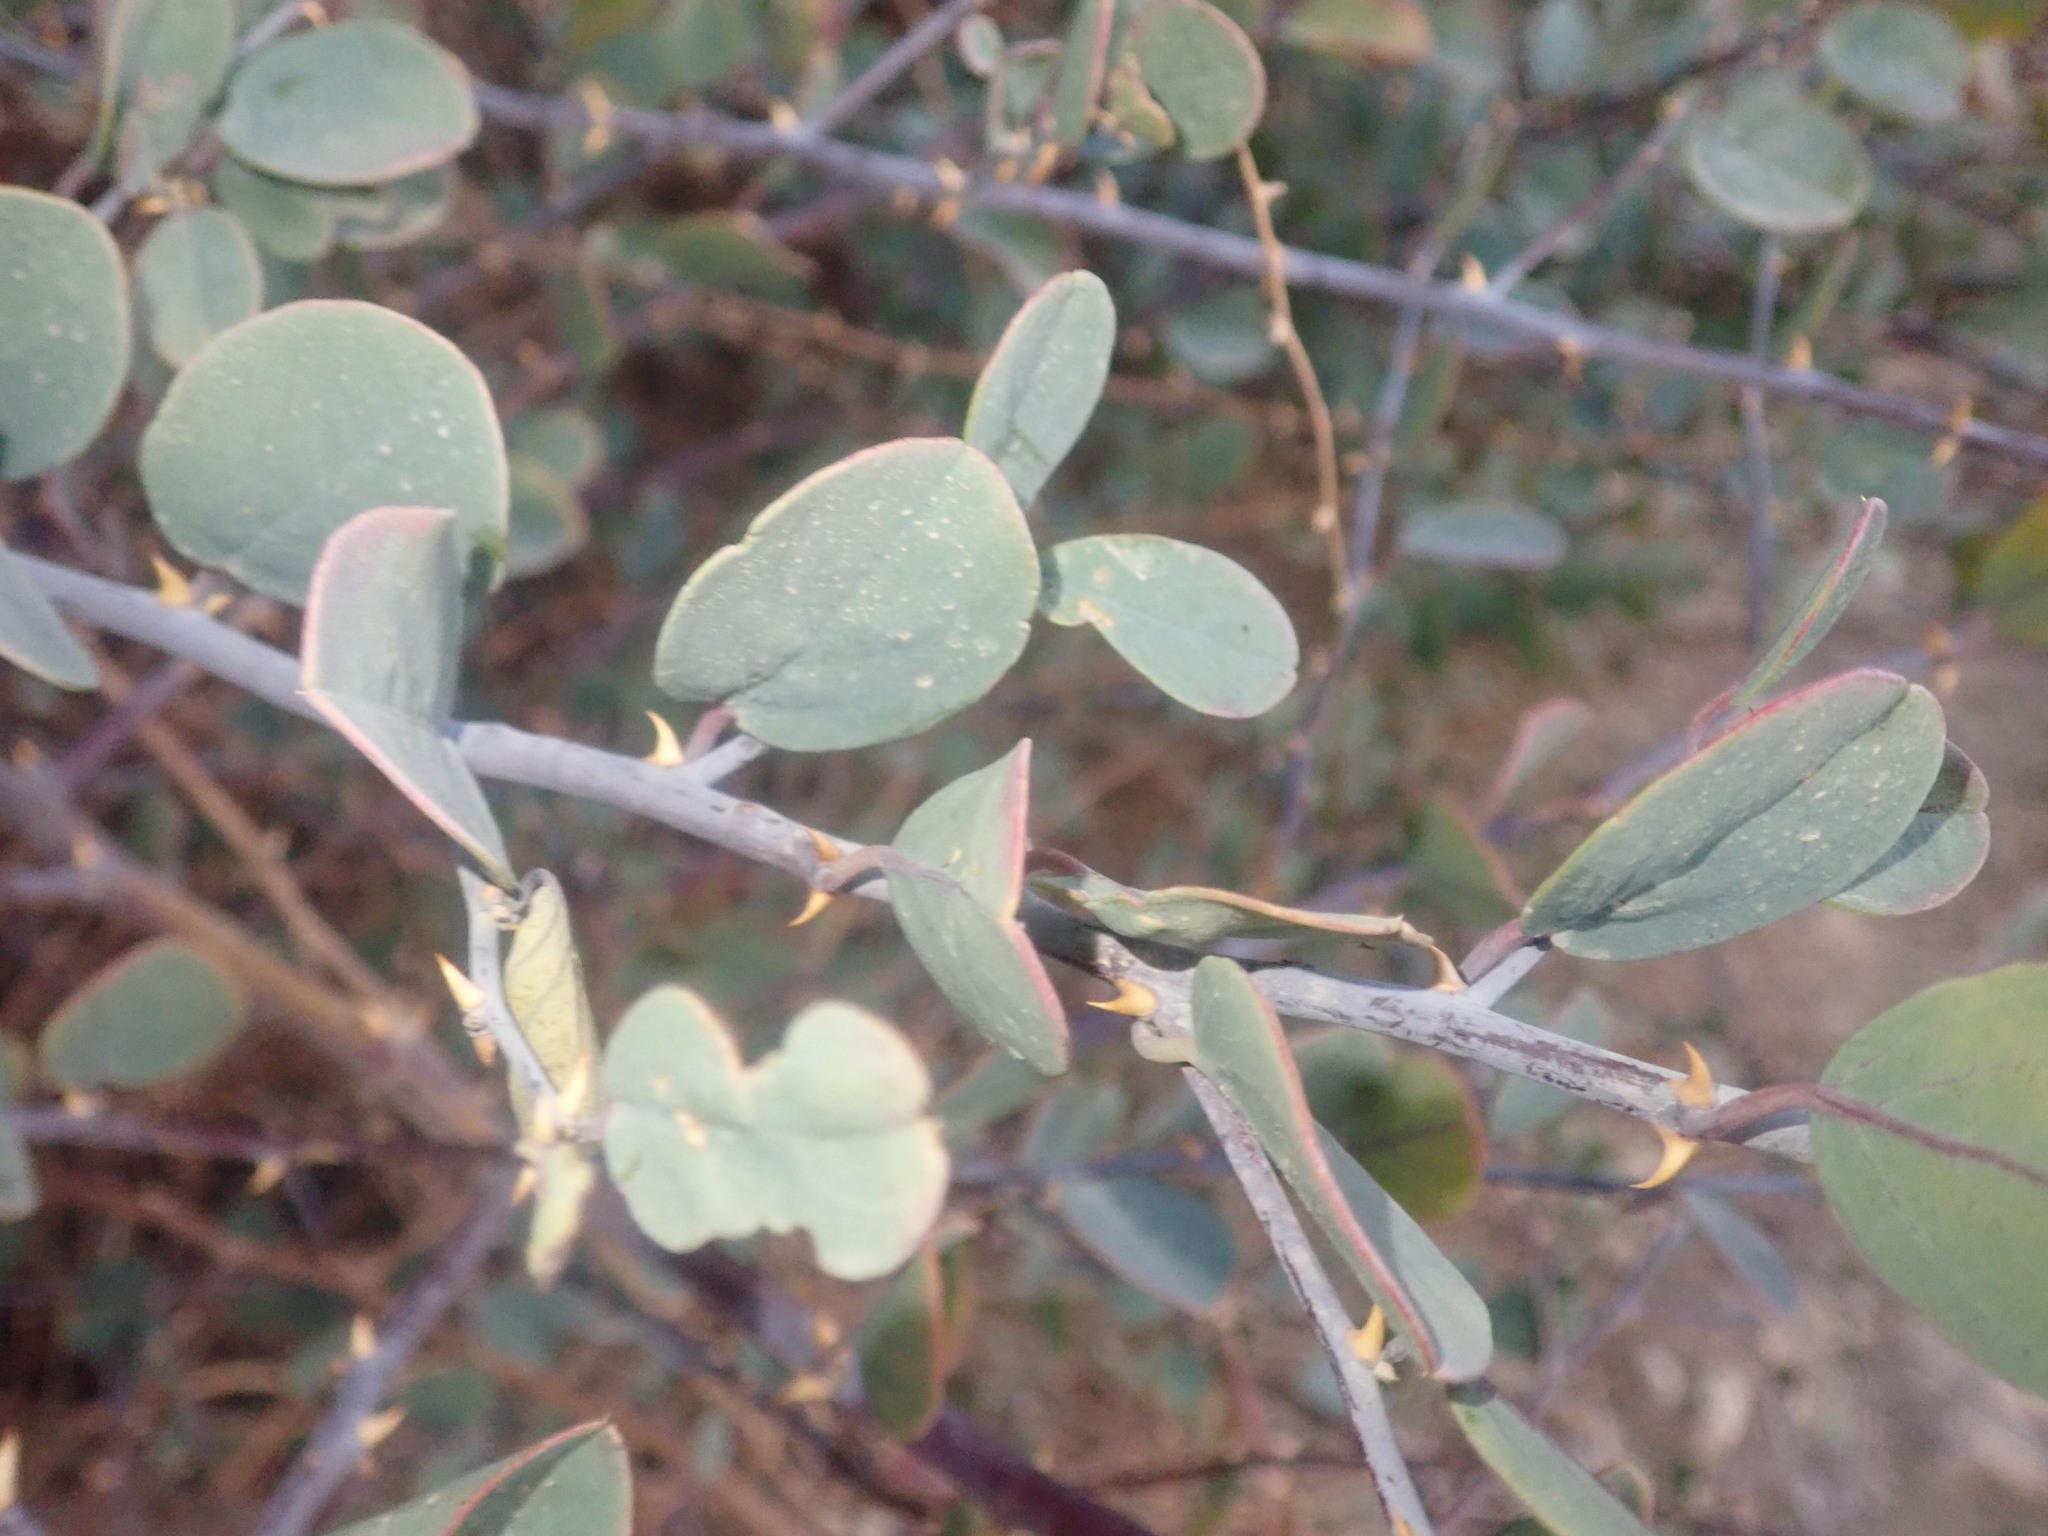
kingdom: Plantae
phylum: Tracheophyta
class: Magnoliopsida
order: Brassicales
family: Capparaceae
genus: Capparis
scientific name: Capparis spinosa
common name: Caper
